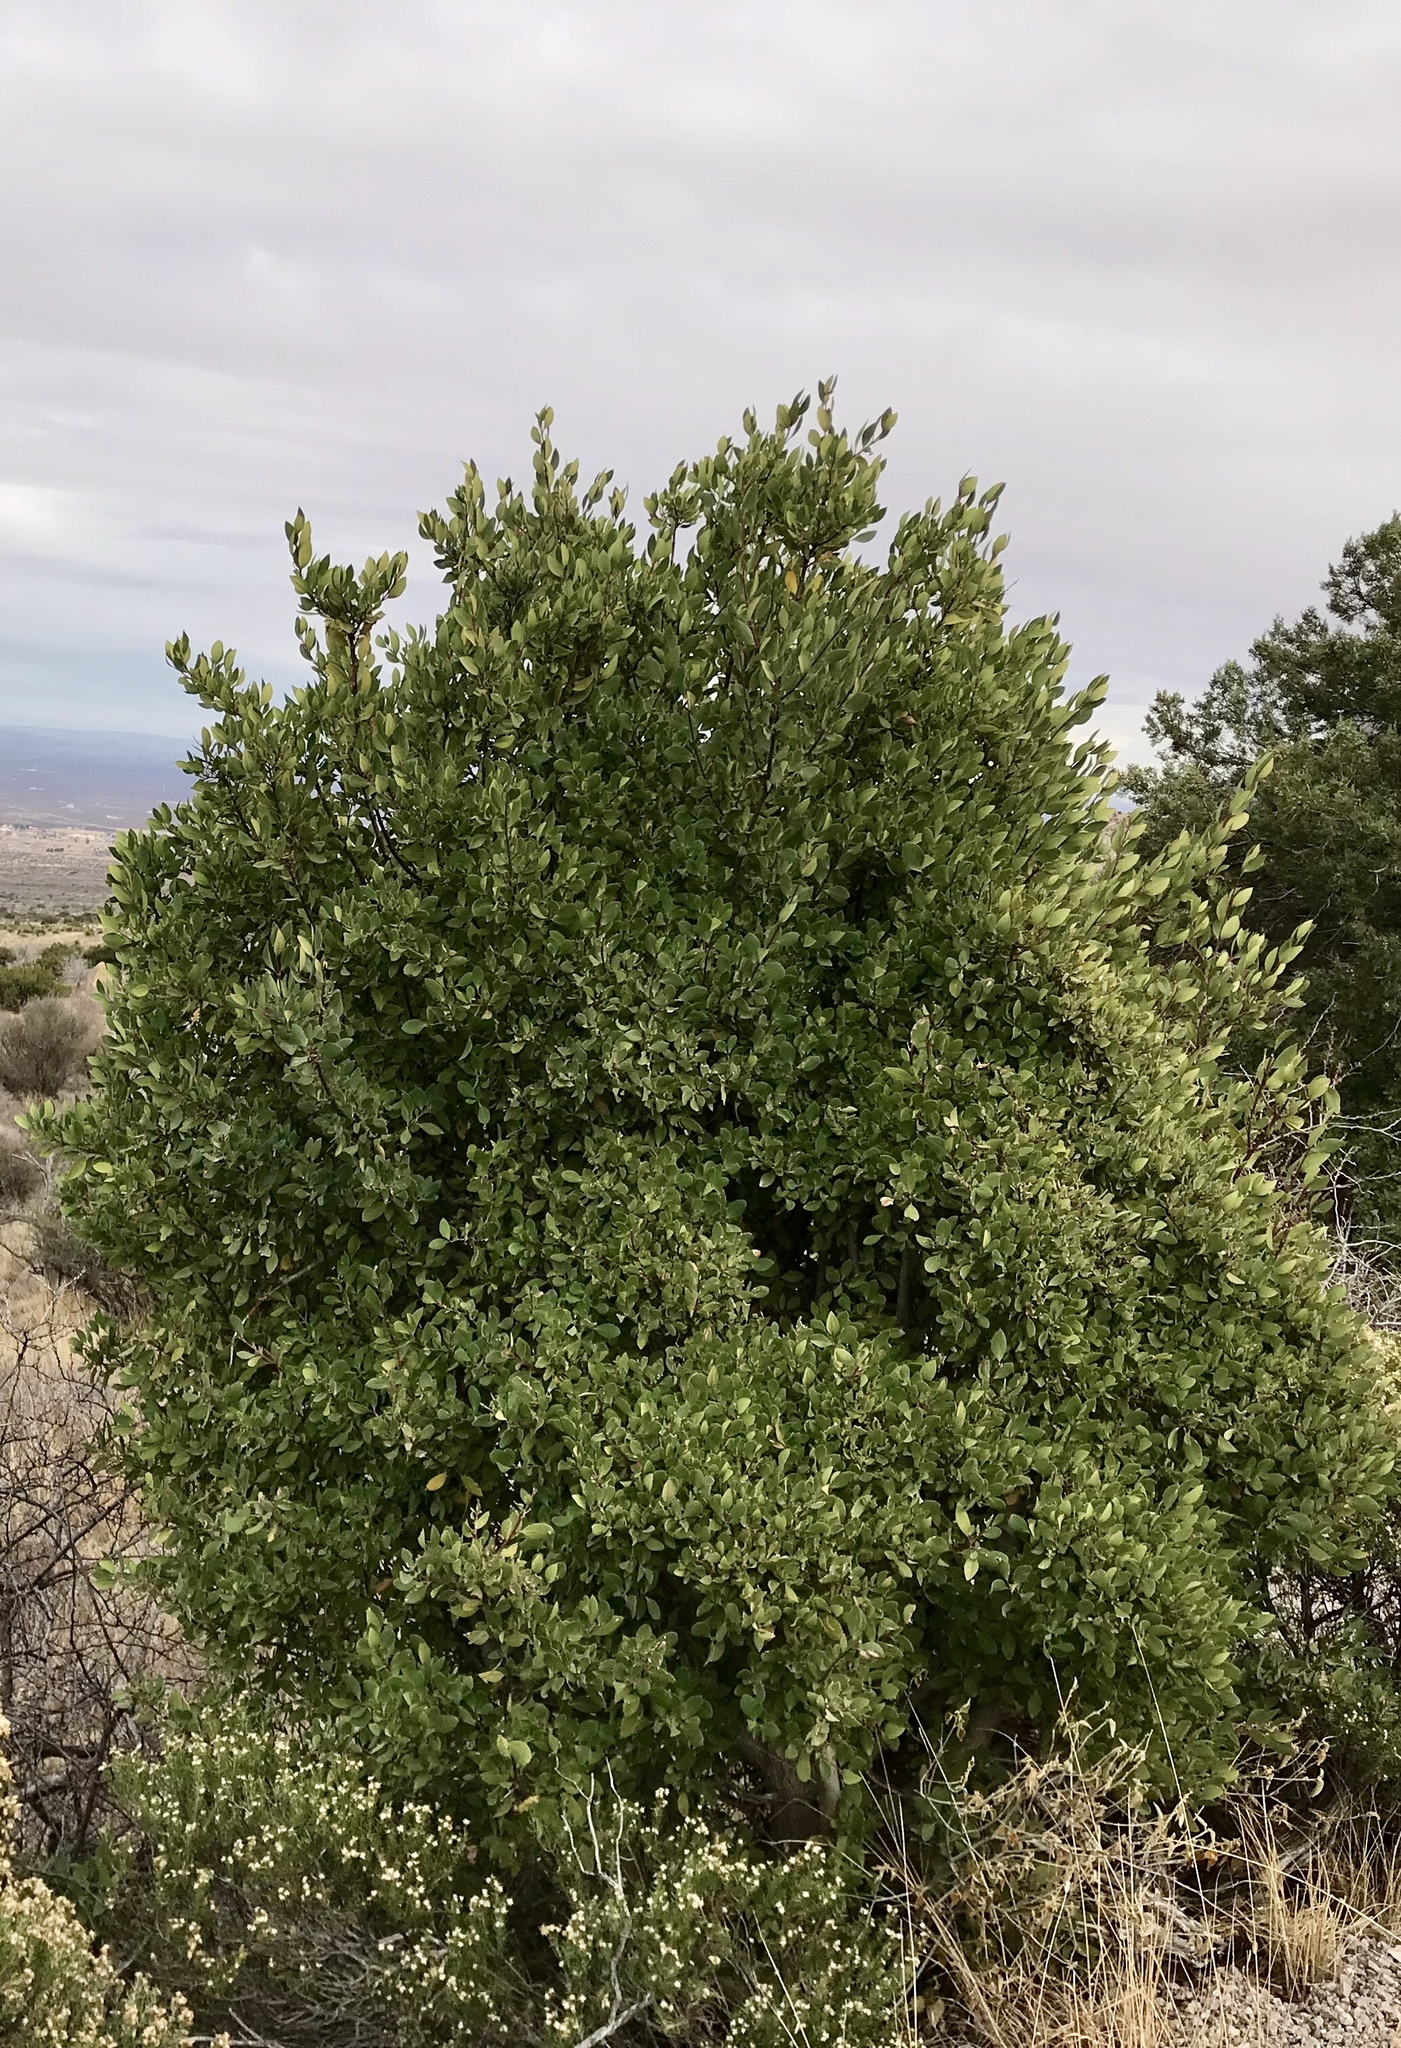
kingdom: Plantae
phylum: Tracheophyta
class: Magnoliopsida
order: Garryales
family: Garryaceae
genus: Garrya
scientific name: Garrya wrightii
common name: Wright's silktassel
